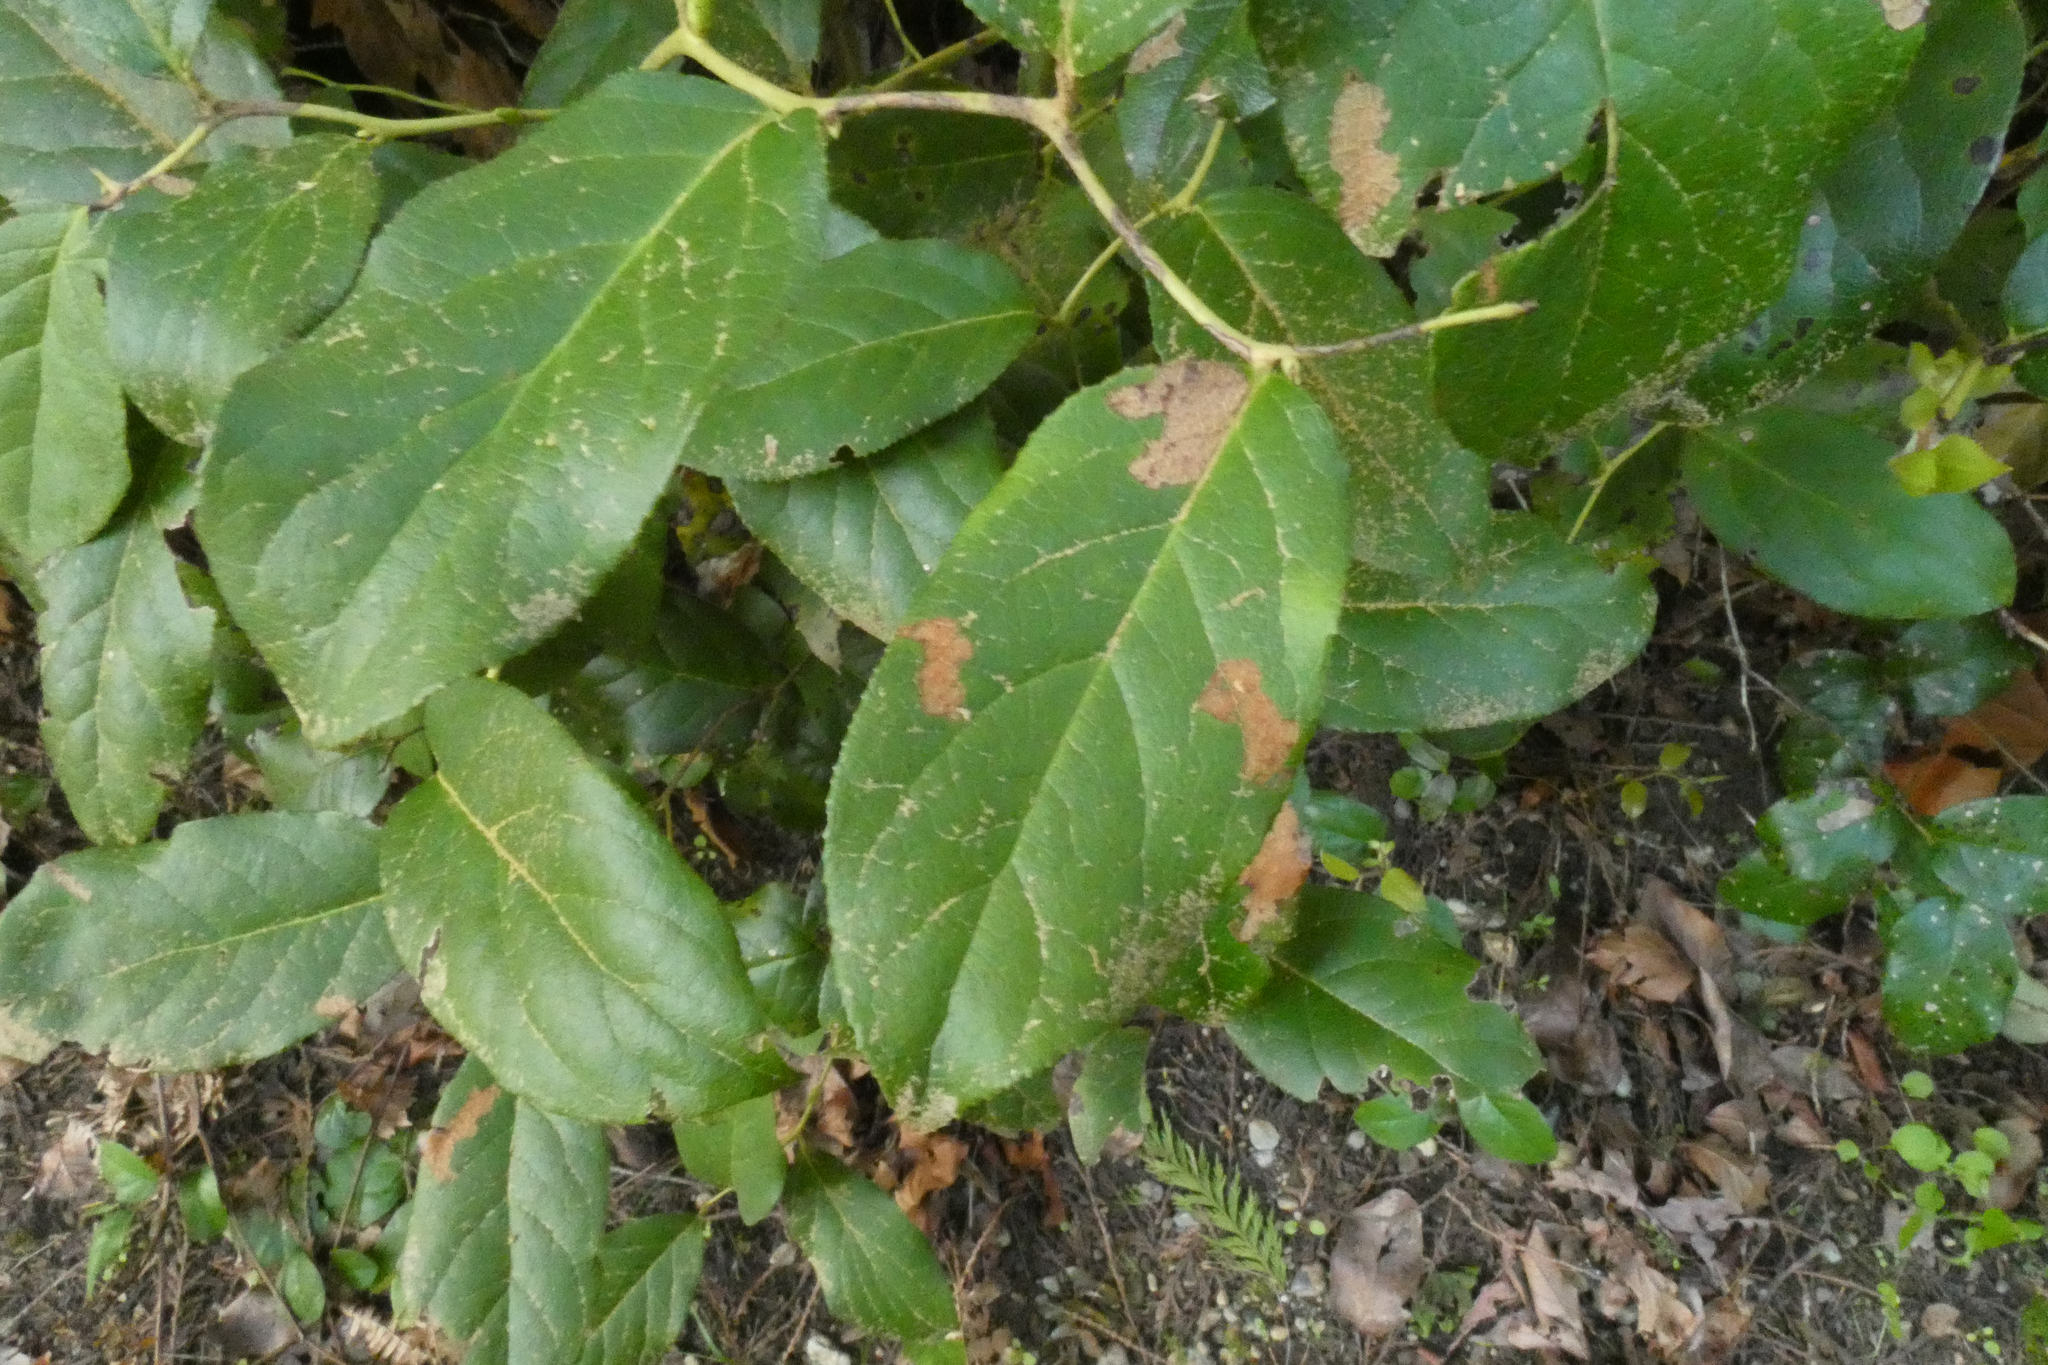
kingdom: Plantae
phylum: Tracheophyta
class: Magnoliopsida
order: Ericales
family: Ericaceae
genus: Gaultheria
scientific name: Gaultheria shallon
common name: Shallon
